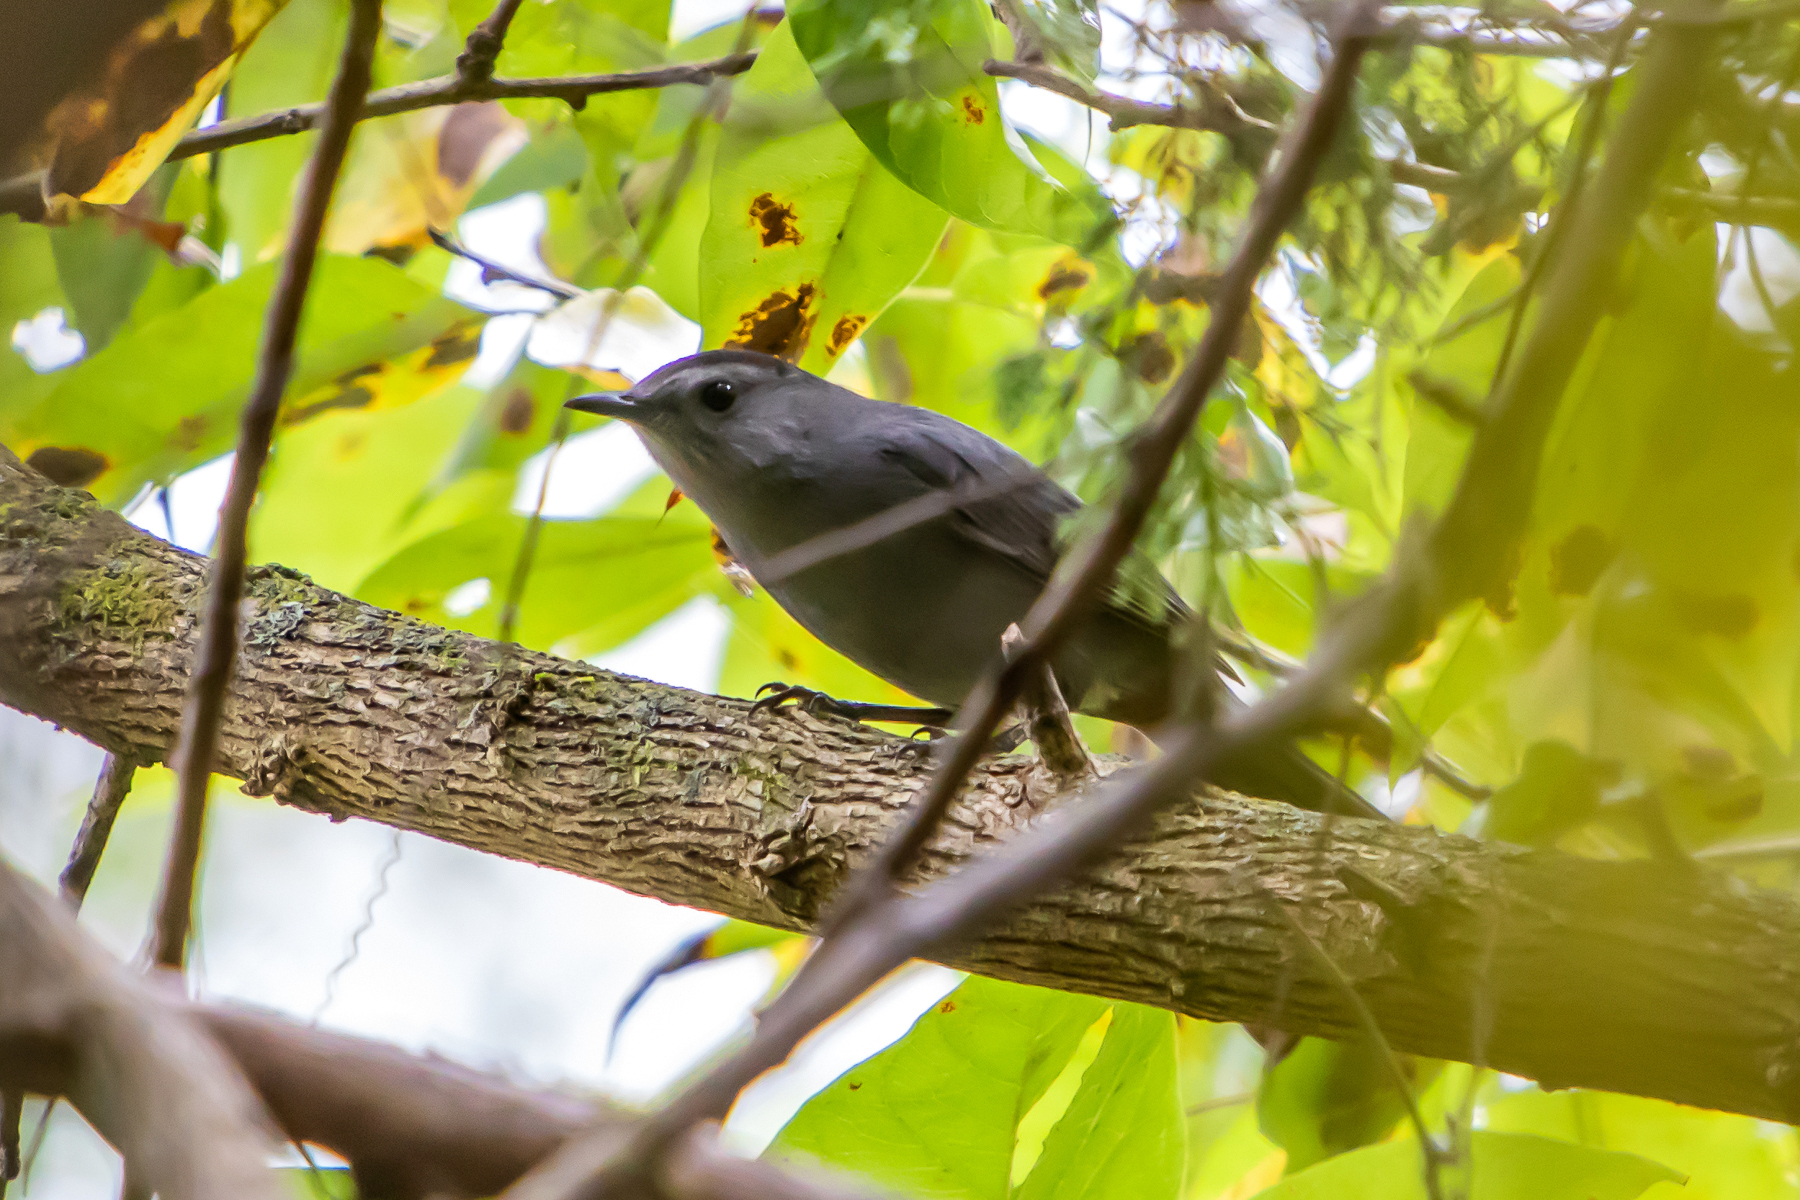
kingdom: Animalia
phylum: Chordata
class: Aves
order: Passeriformes
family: Mimidae
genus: Dumetella
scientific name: Dumetella carolinensis
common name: Gray catbird
